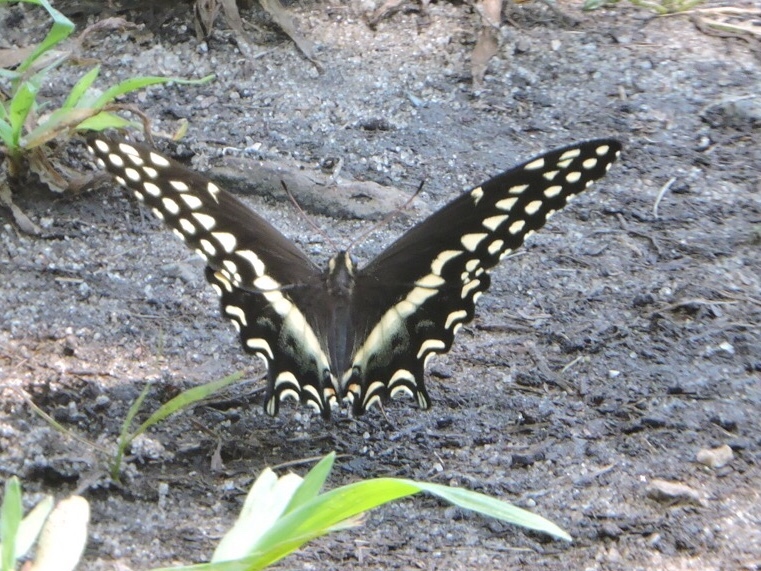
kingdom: Animalia
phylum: Arthropoda
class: Insecta
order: Lepidoptera
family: Papilionidae
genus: Papilio
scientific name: Papilio palamedes
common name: Palamedes swallowtail
